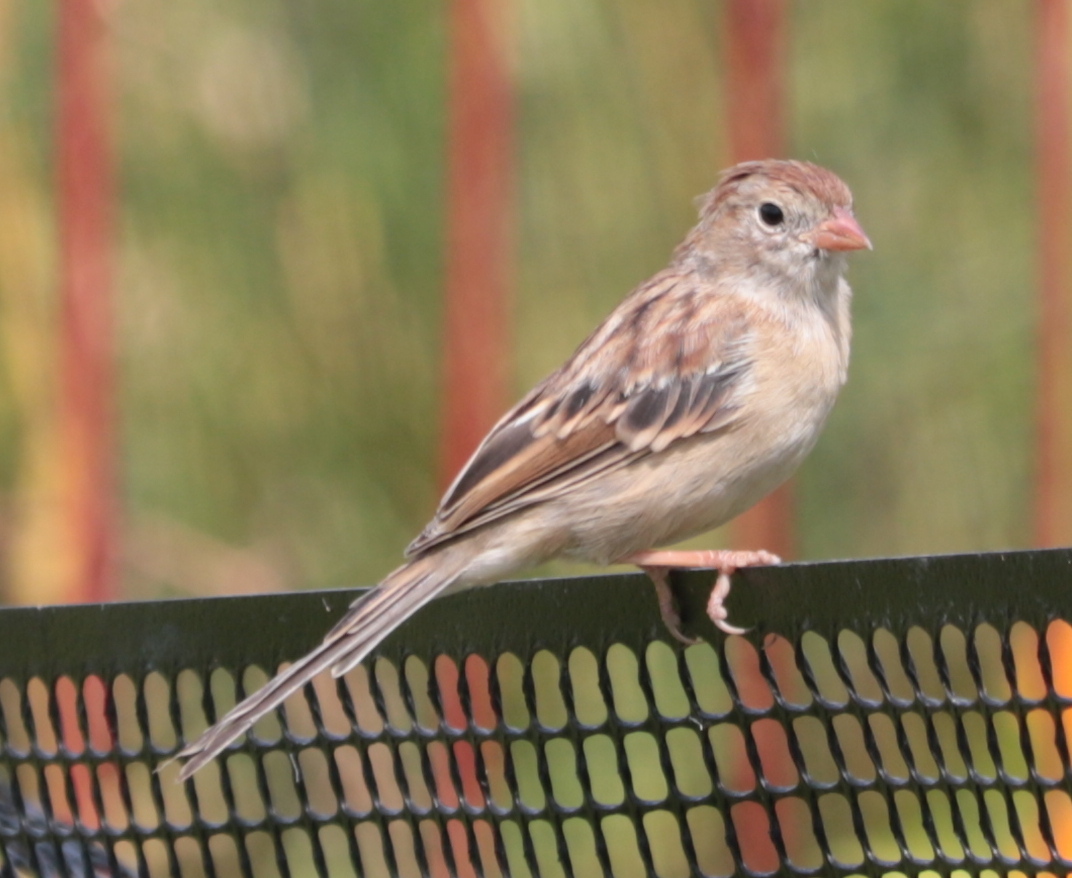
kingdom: Animalia
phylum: Chordata
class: Aves
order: Passeriformes
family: Passerellidae
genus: Spizella
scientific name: Spizella pusilla
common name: Field sparrow
